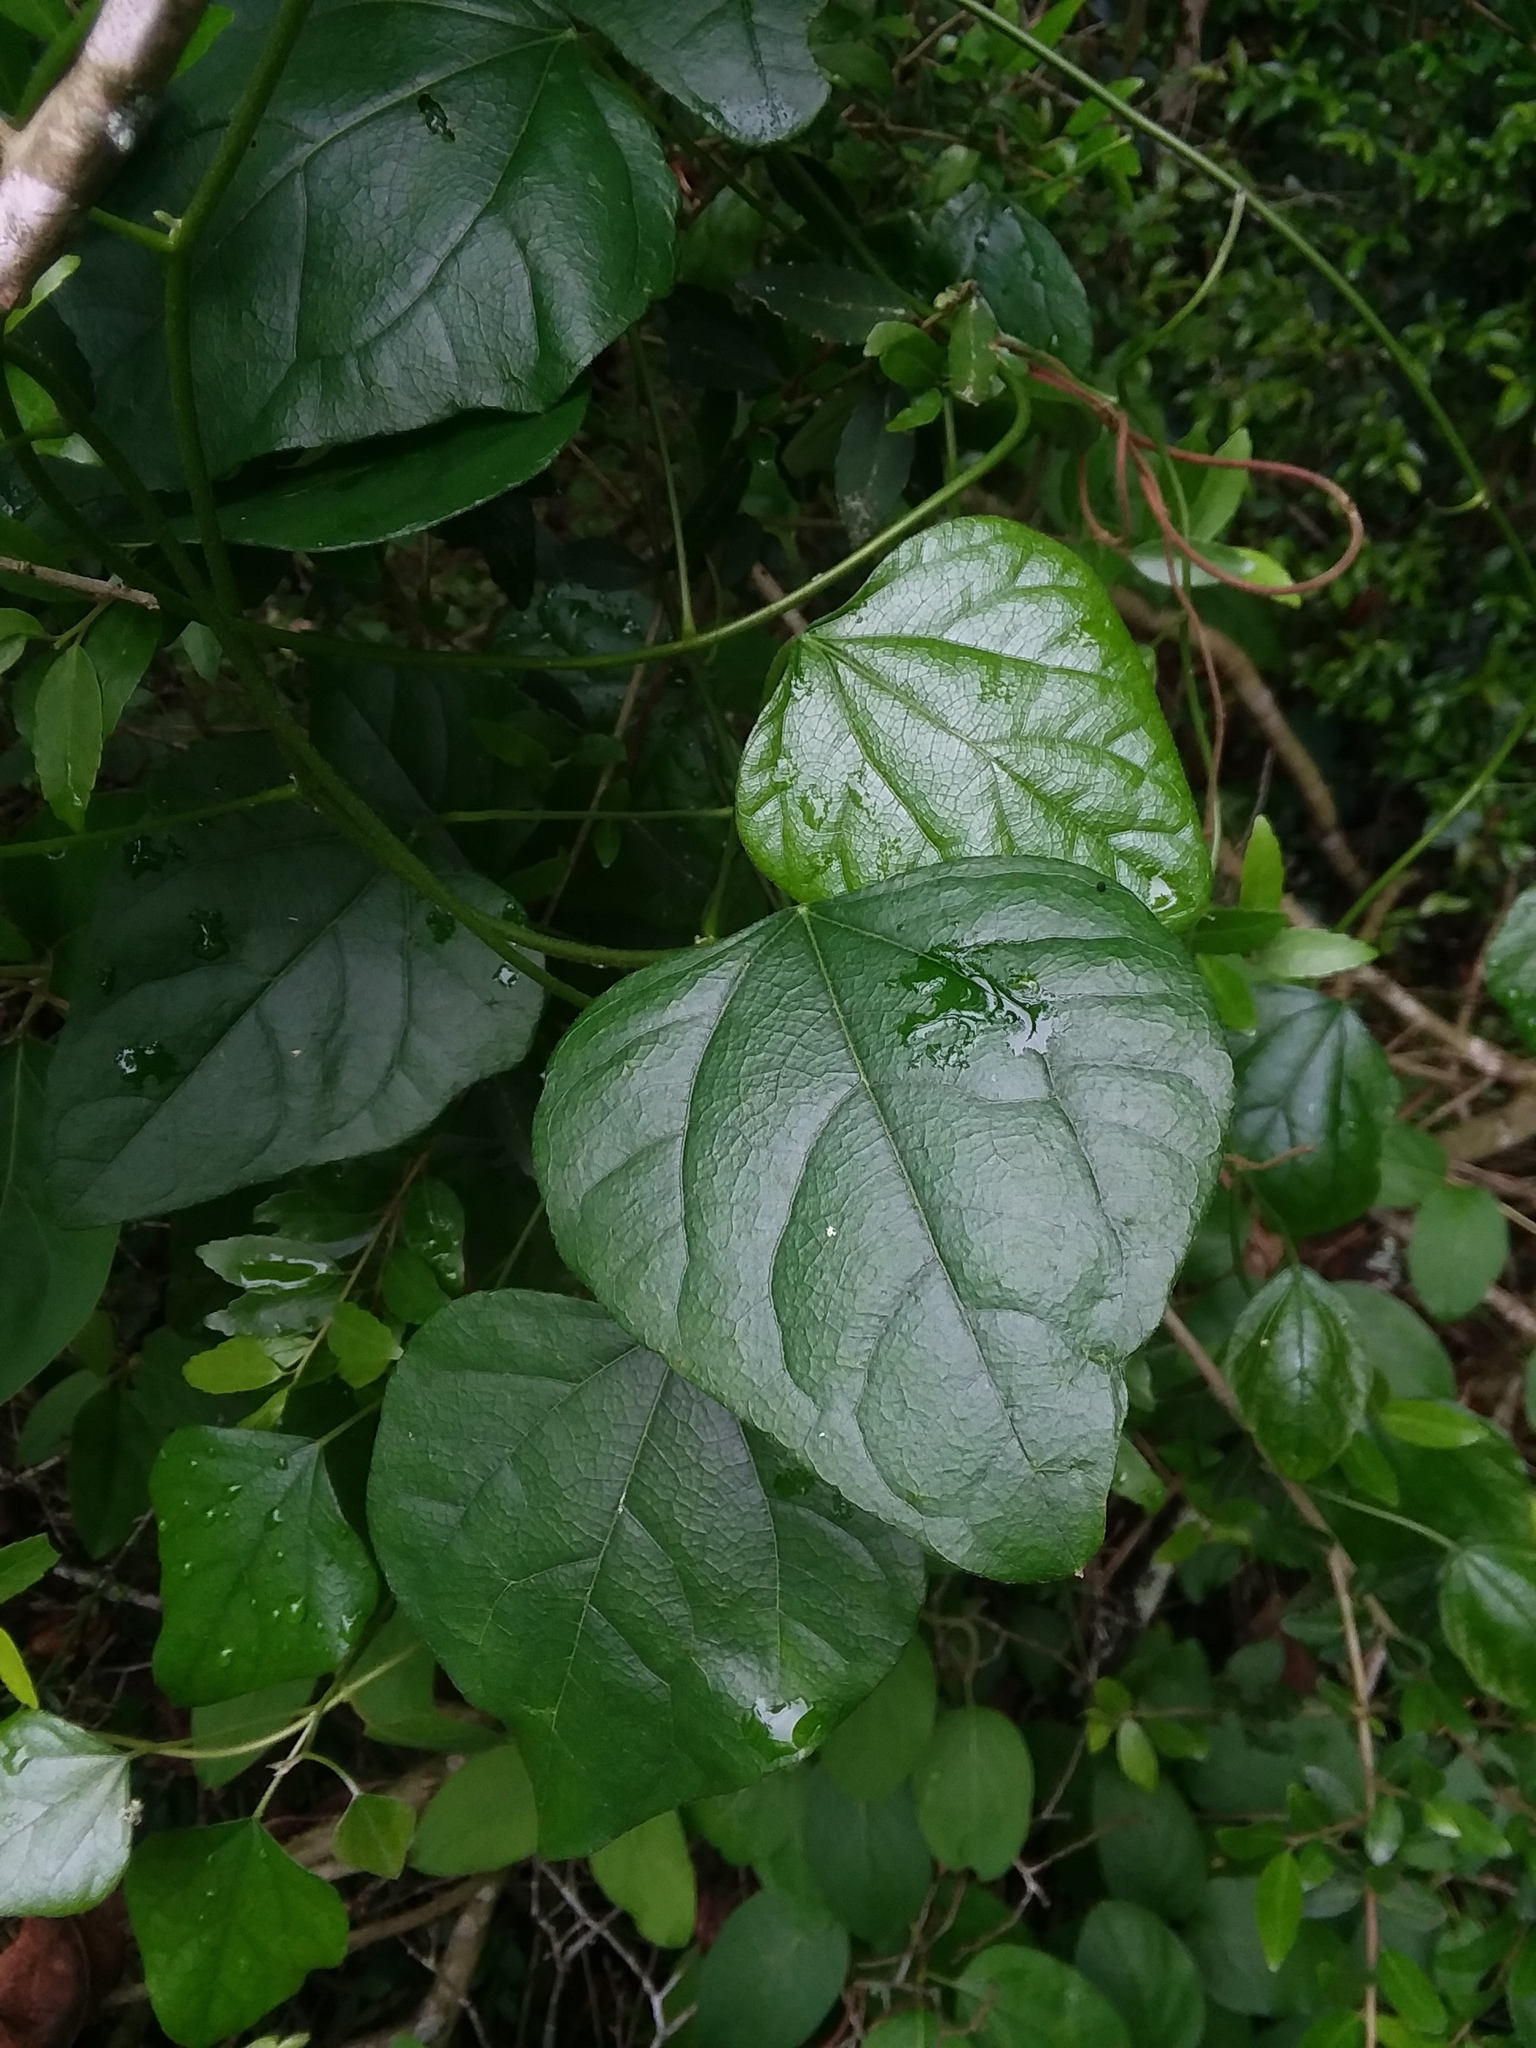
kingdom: Plantae
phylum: Tracheophyta
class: Magnoliopsida
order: Ranunculales
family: Menispermaceae
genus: Cocculus
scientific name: Cocculus carolinus
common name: Carolina moonseed
